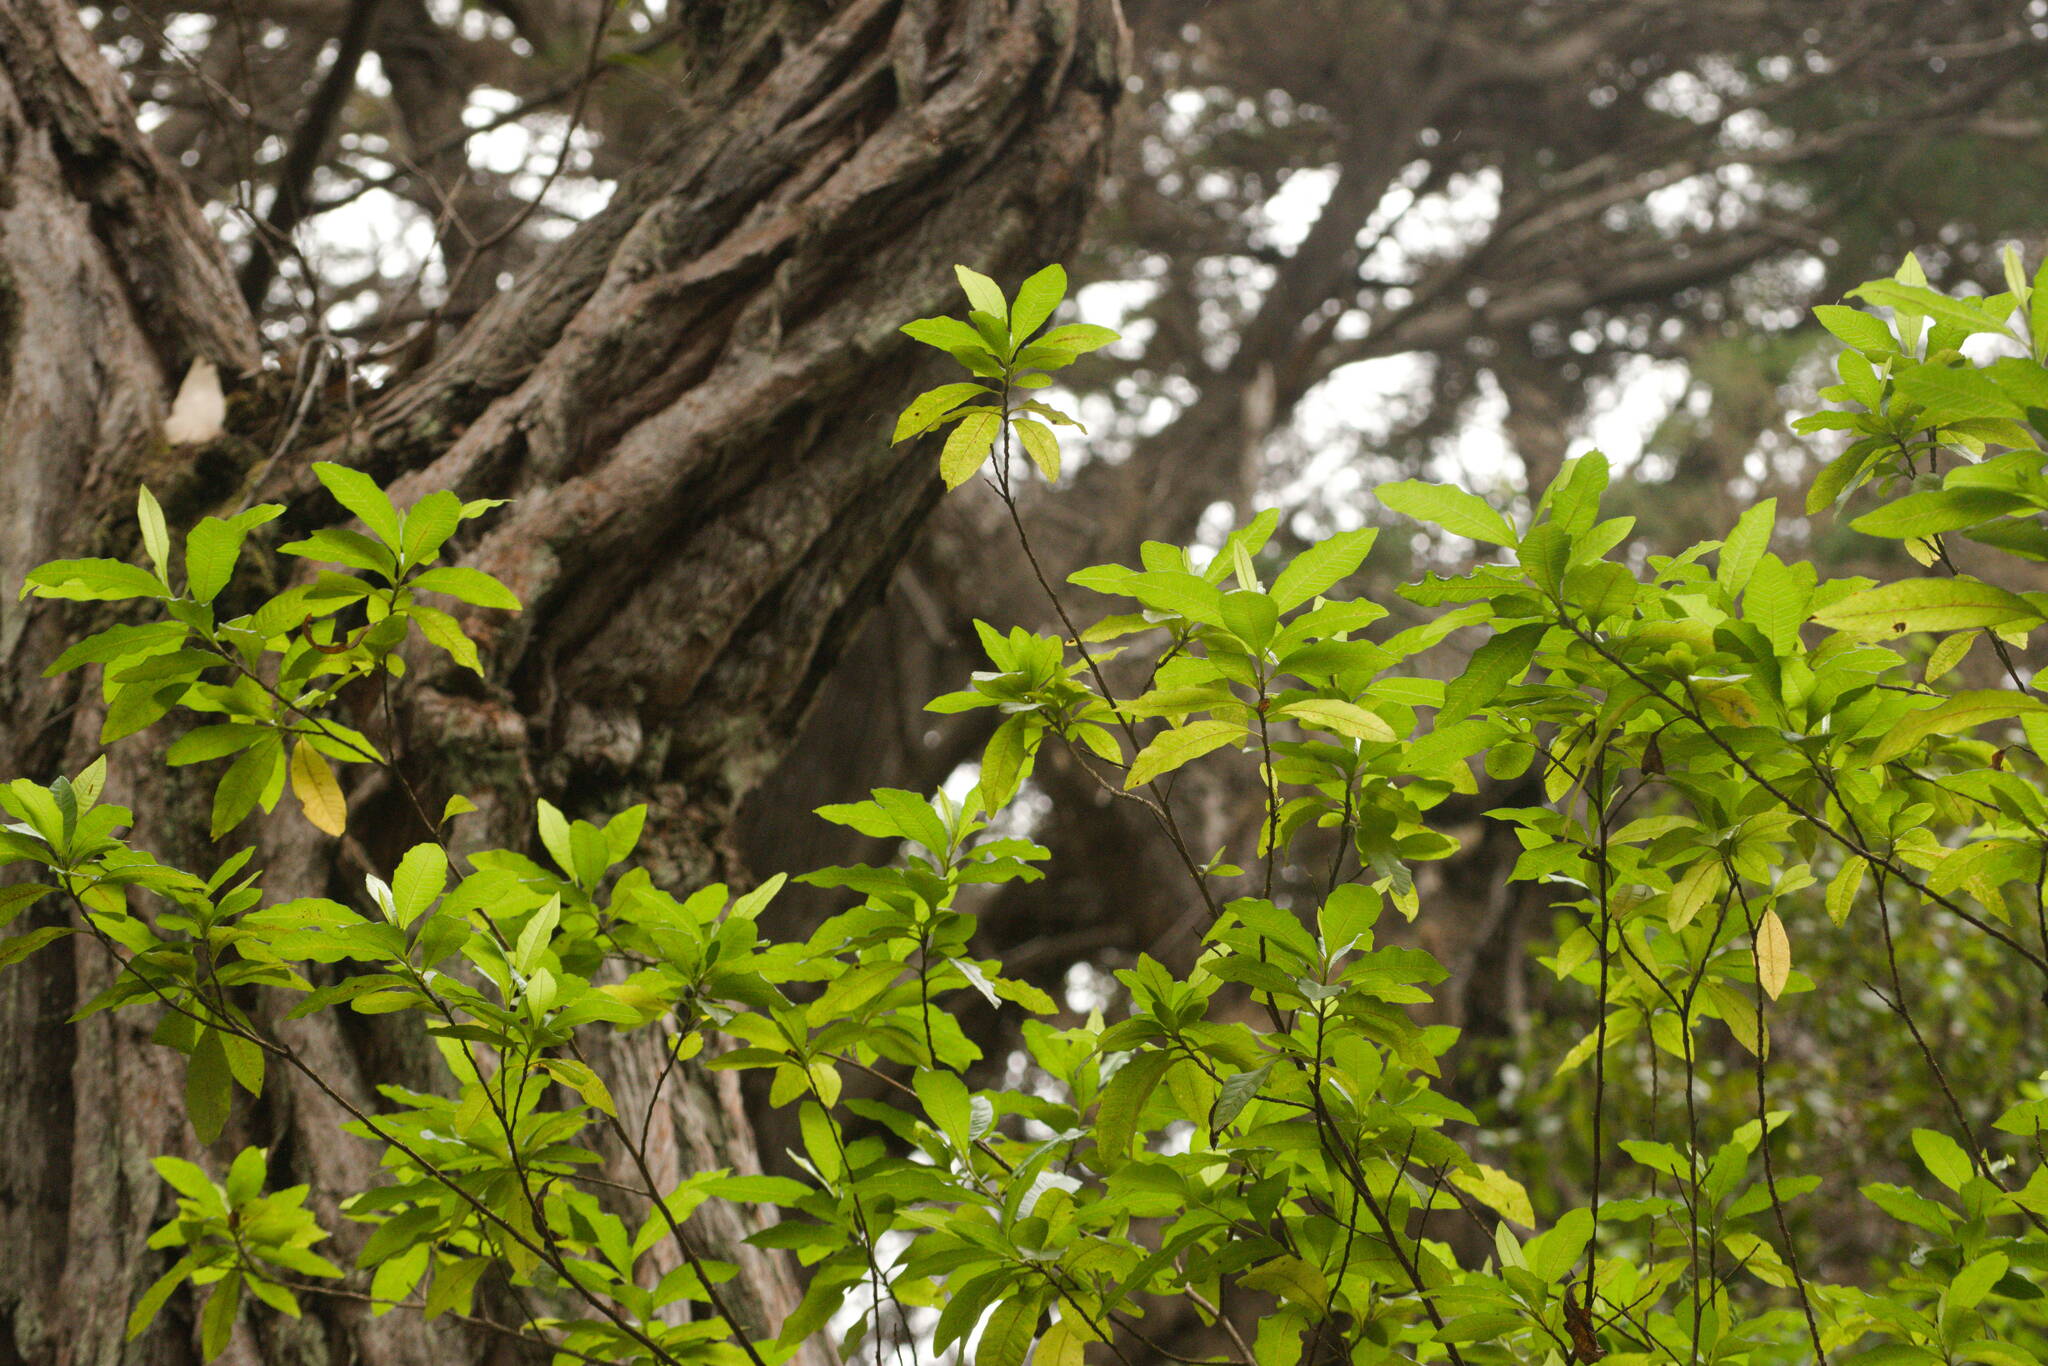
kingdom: Plantae
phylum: Tracheophyta
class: Magnoliopsida
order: Sapindales
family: Sapindaceae
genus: Dodonaea
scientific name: Dodonaea viscosa
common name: Hopbush
